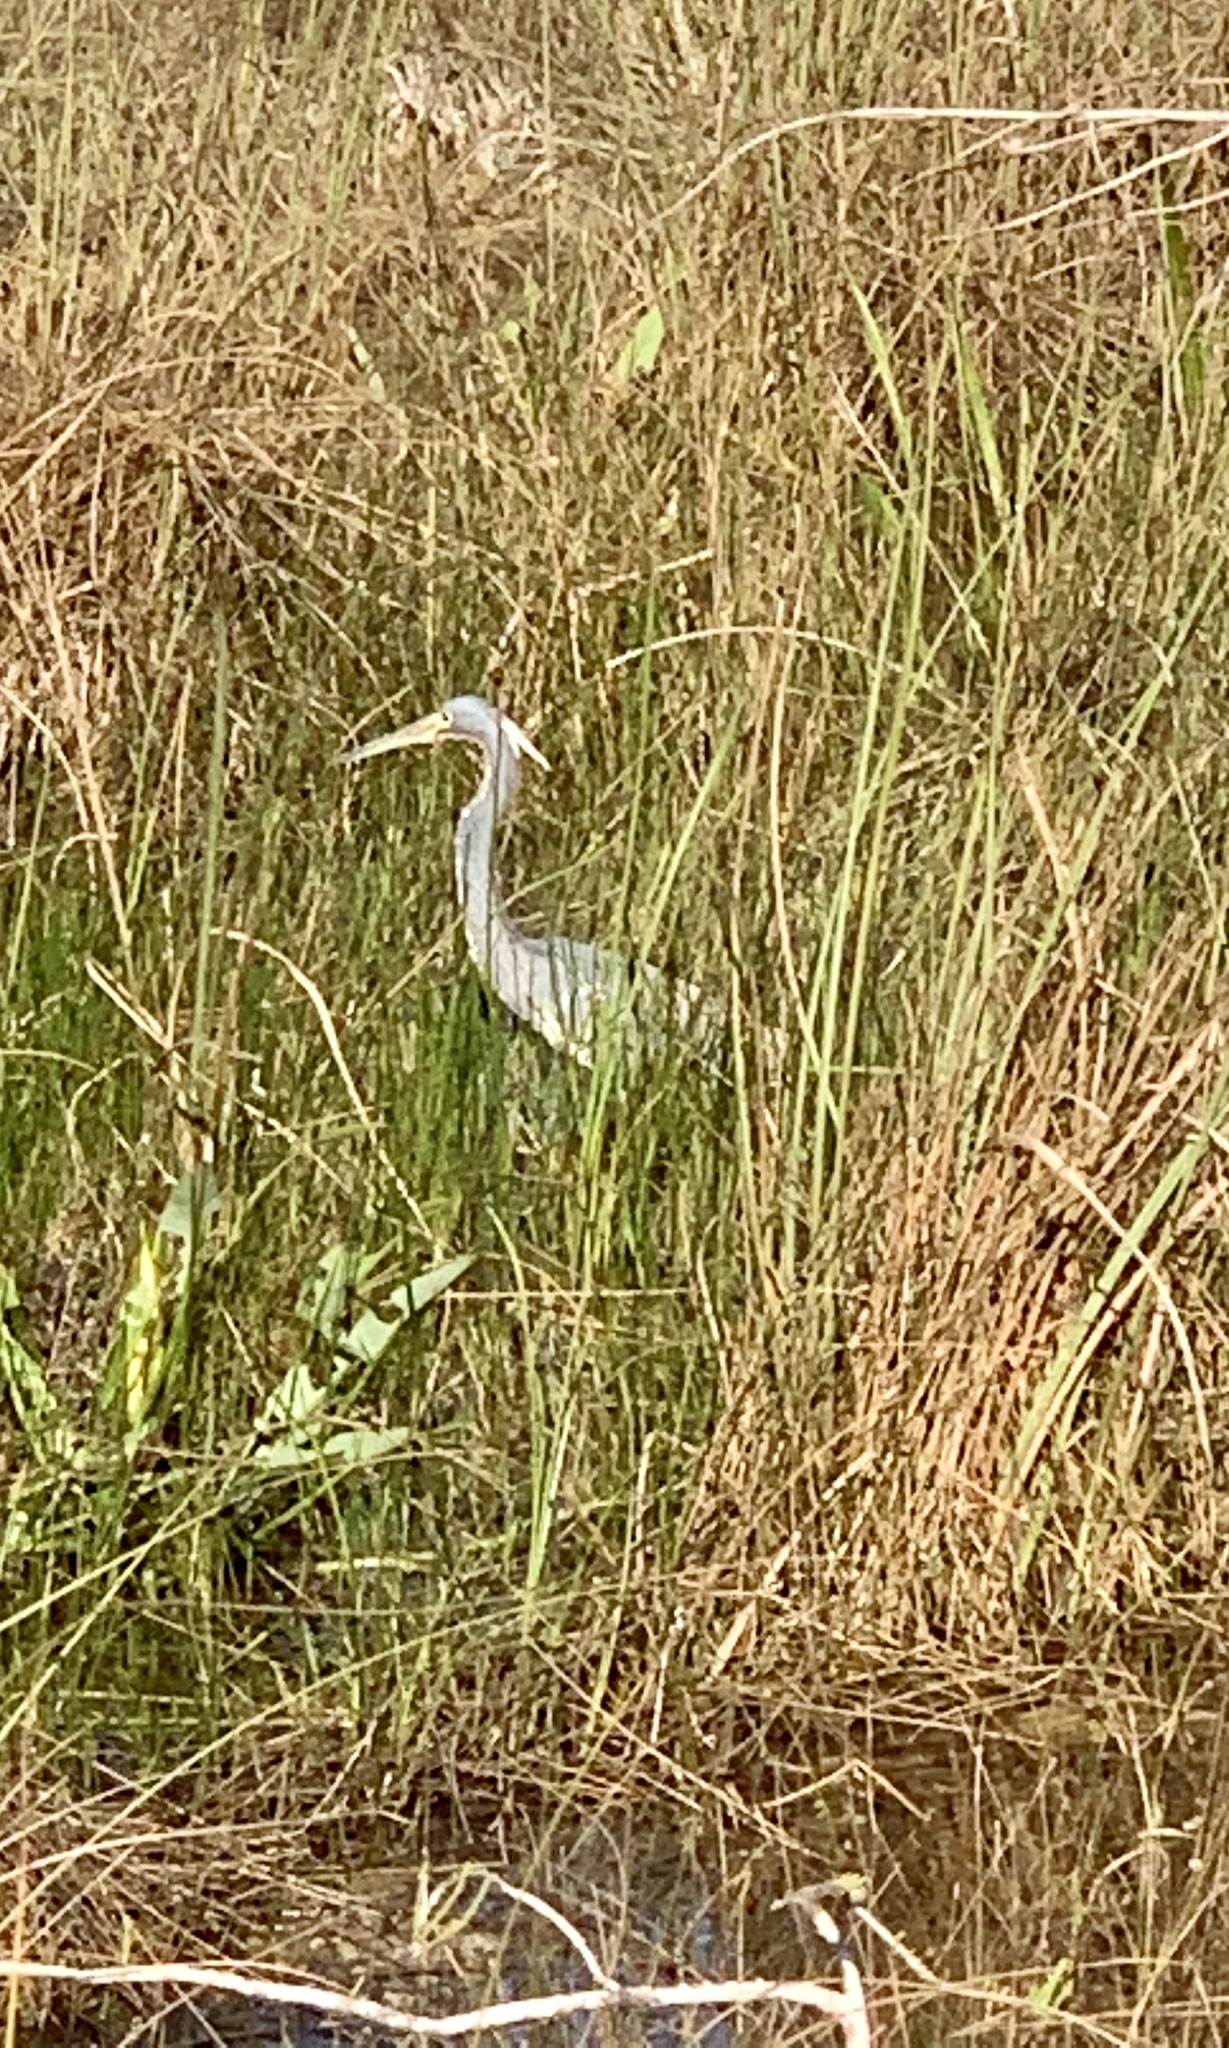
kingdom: Animalia
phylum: Chordata
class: Aves
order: Pelecaniformes
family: Ardeidae
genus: Egretta
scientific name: Egretta tricolor
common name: Tricolored heron
